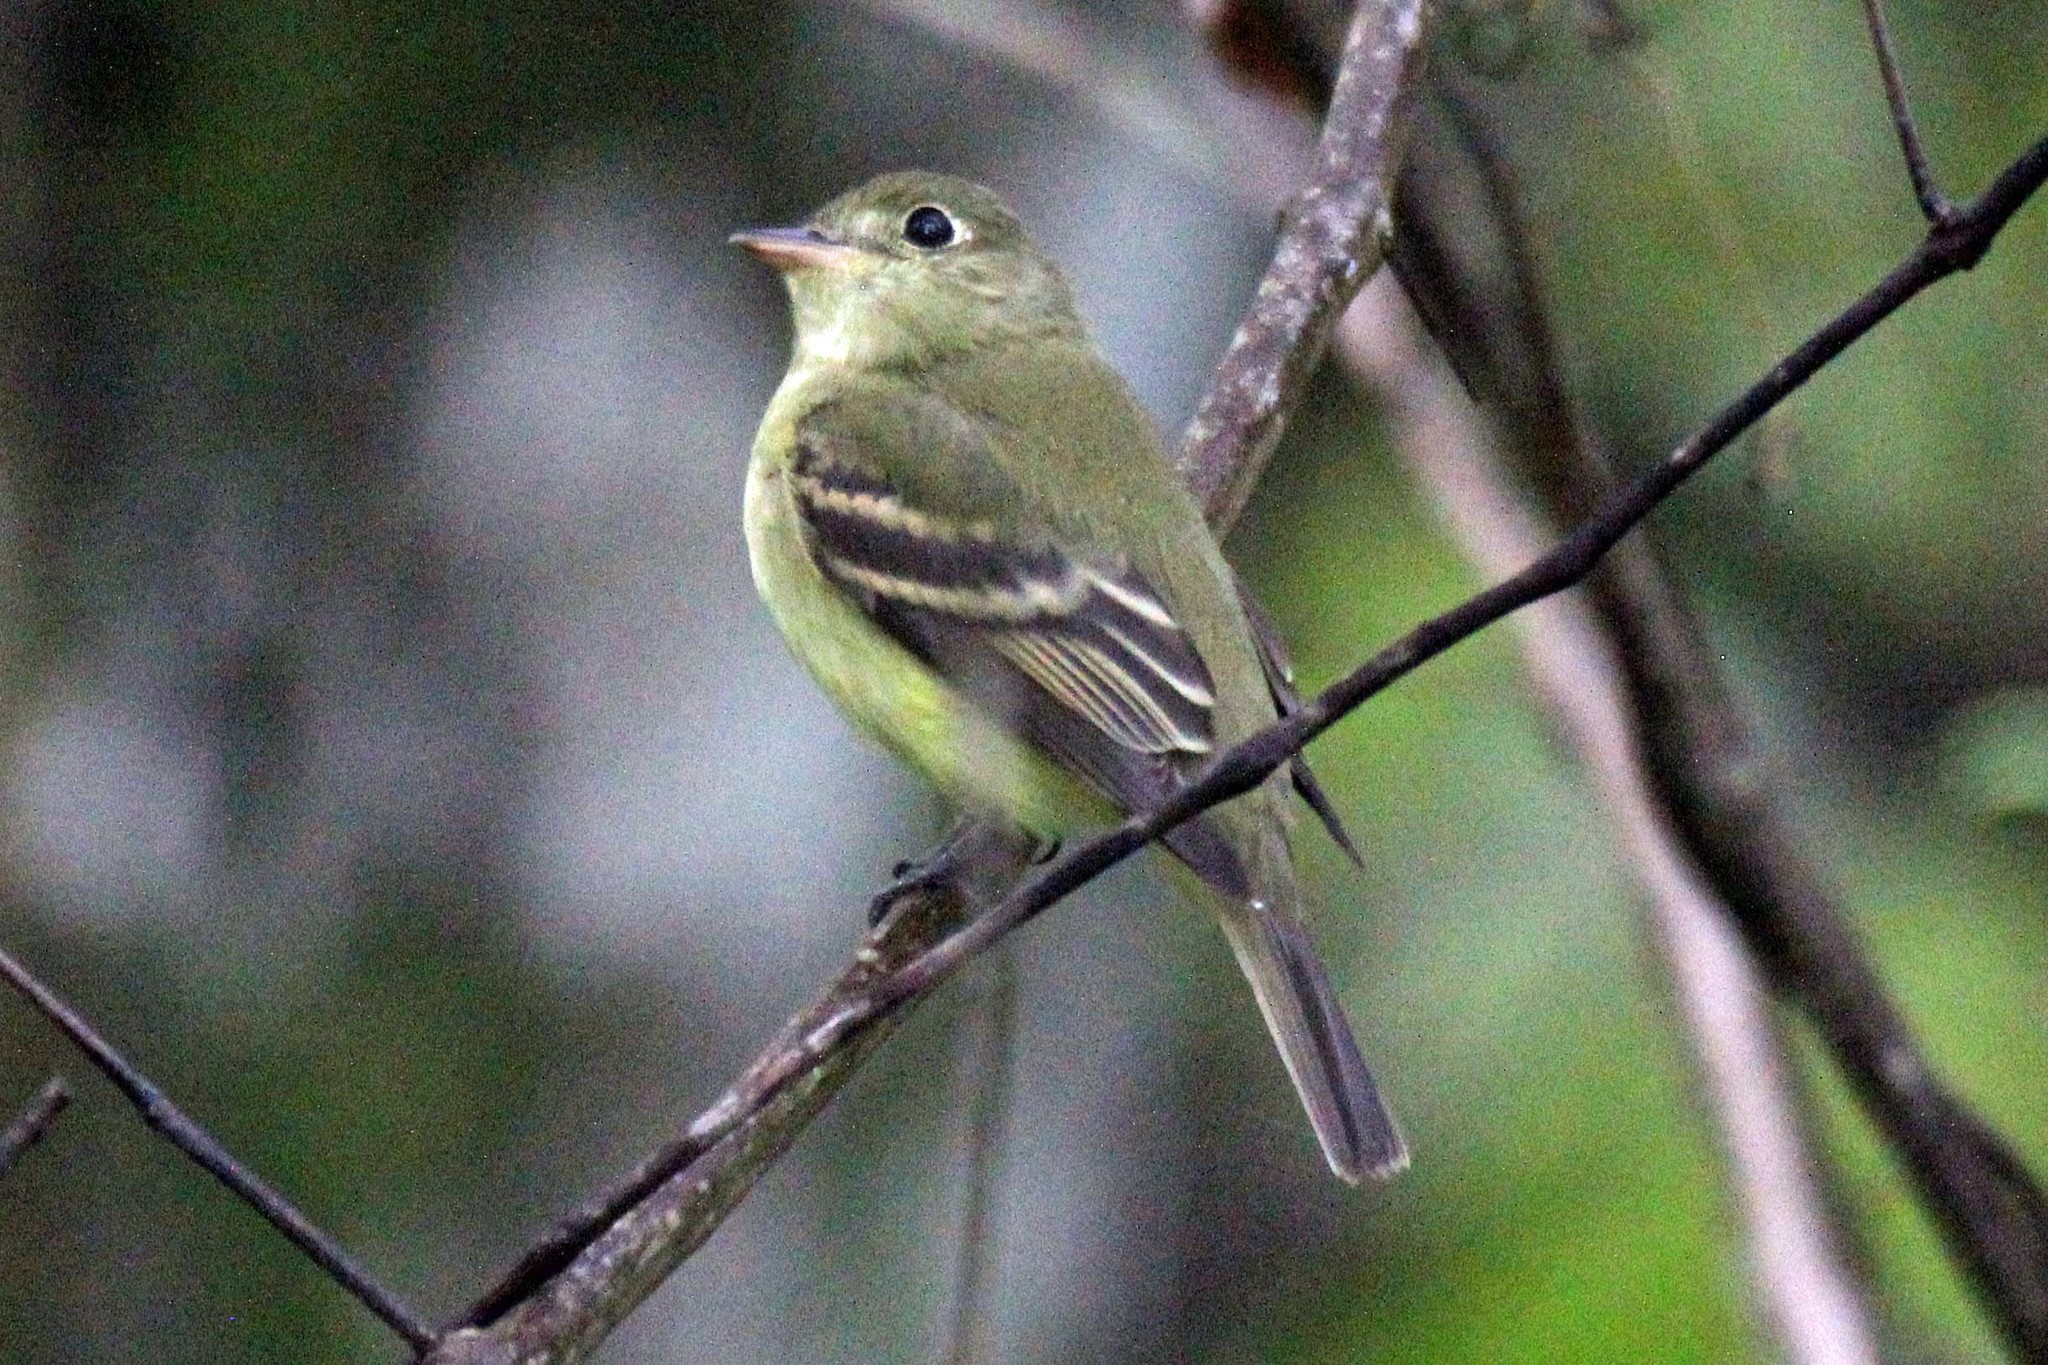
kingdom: Animalia
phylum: Chordata
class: Aves
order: Passeriformes
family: Tyrannidae
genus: Empidonax
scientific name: Empidonax flaviventris
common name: Yellow-bellied flycatcher
